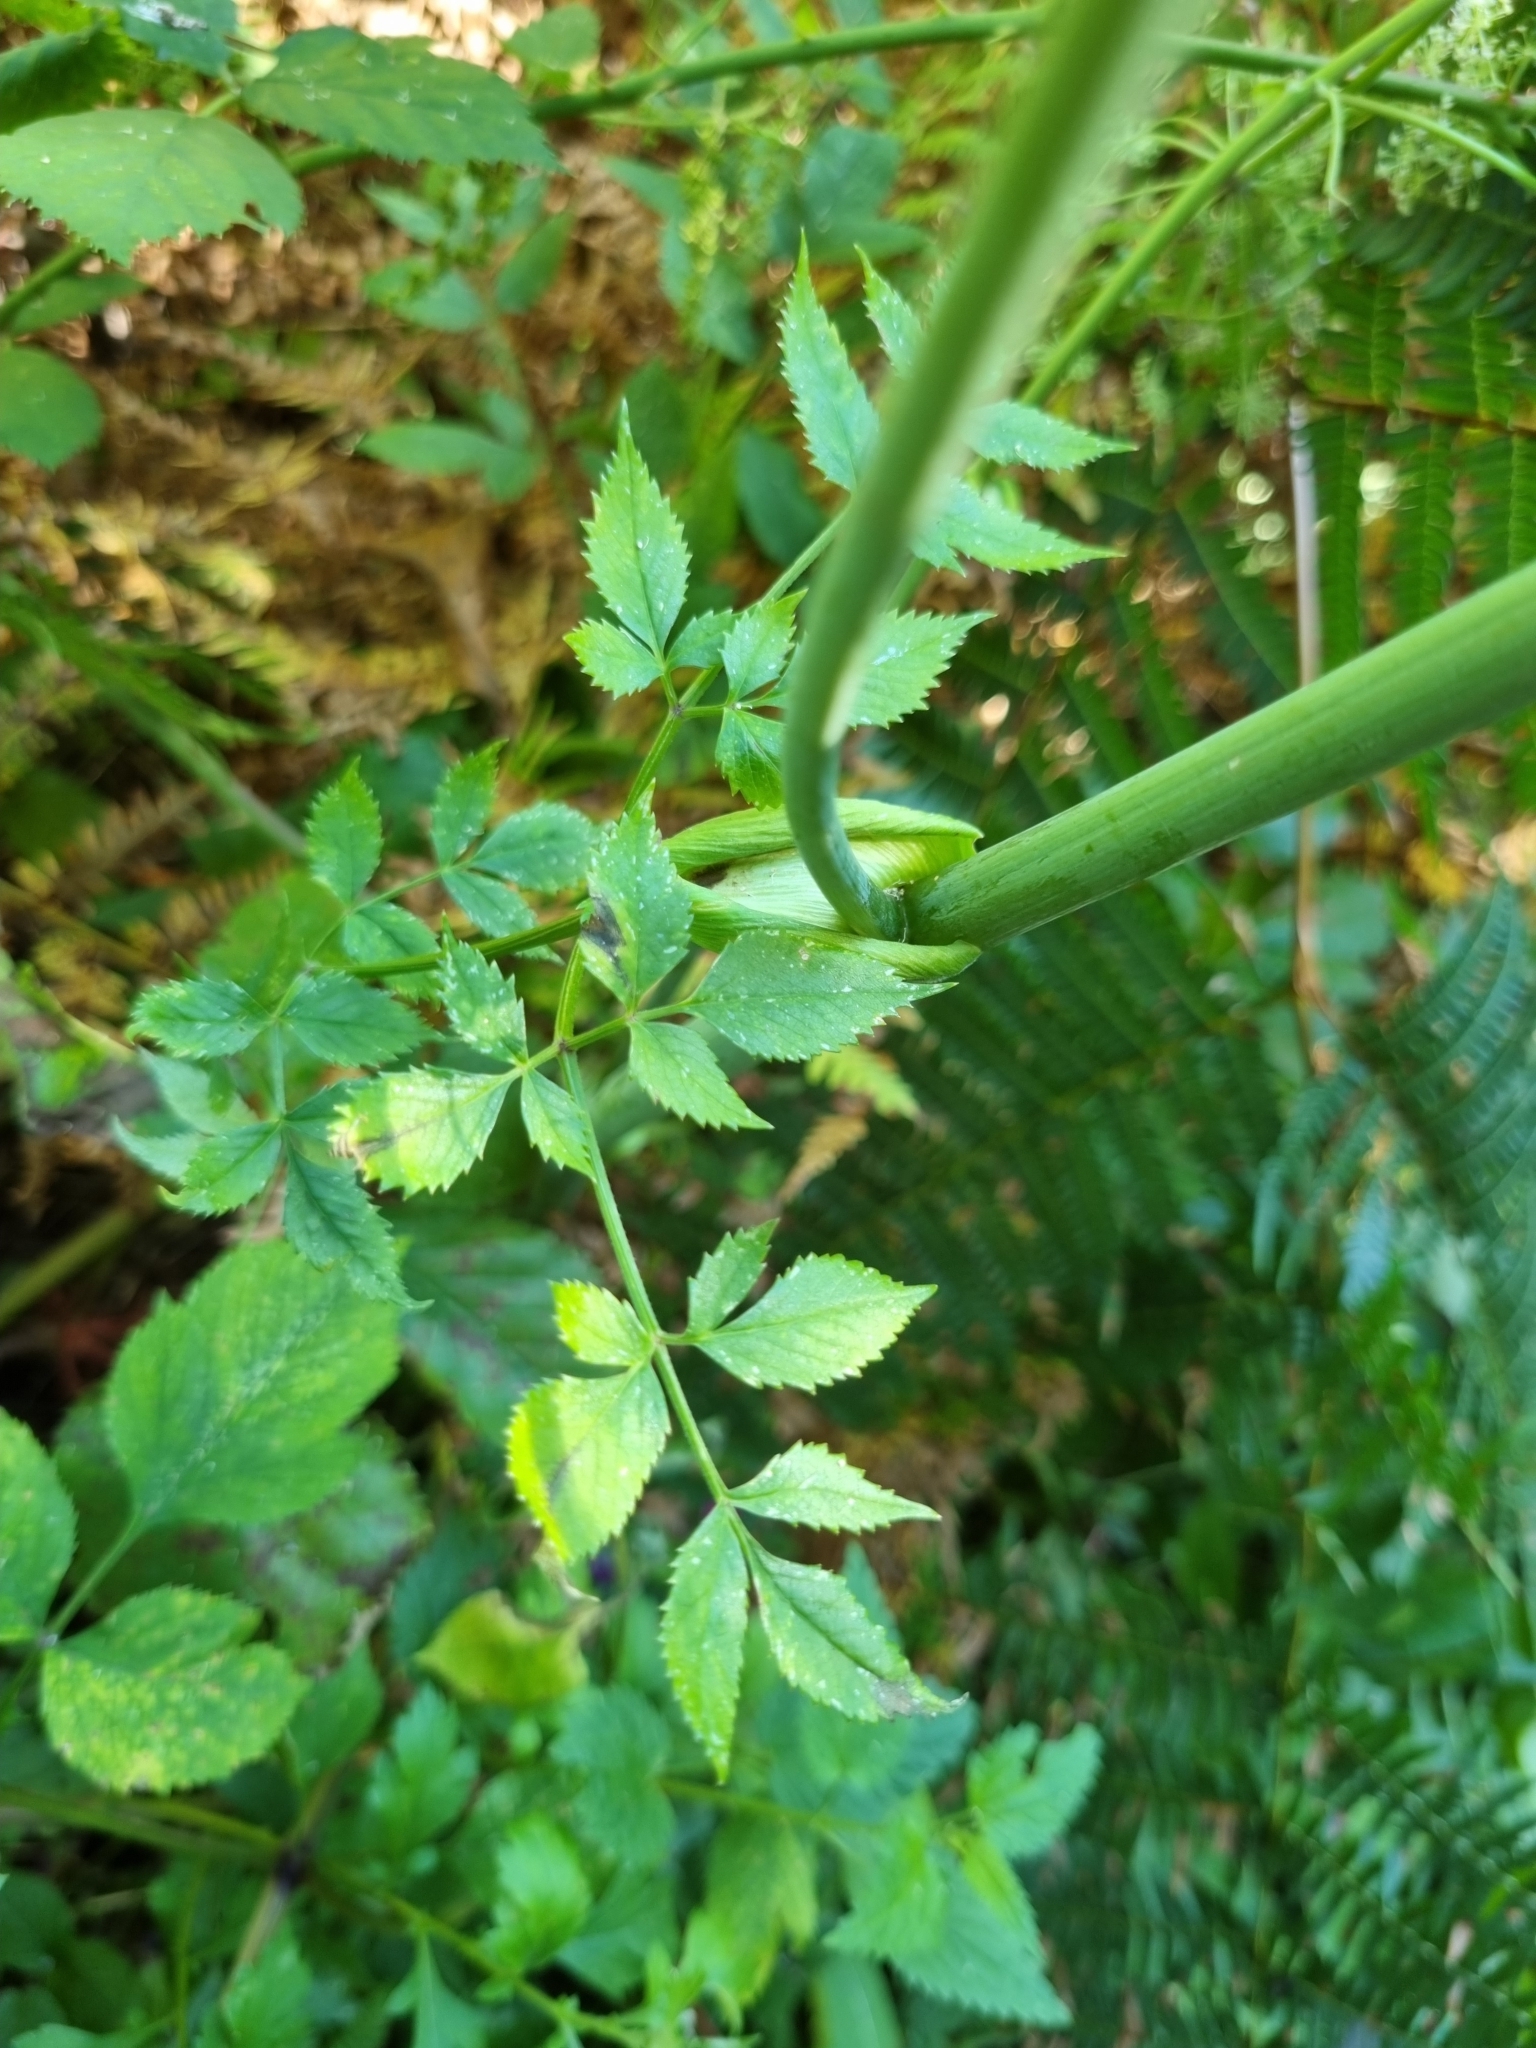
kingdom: Plantae
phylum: Tracheophyta
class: Magnoliopsida
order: Apiales
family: Apiaceae
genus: Heracleum
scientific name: Heracleum sphondylium
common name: Hogweed
